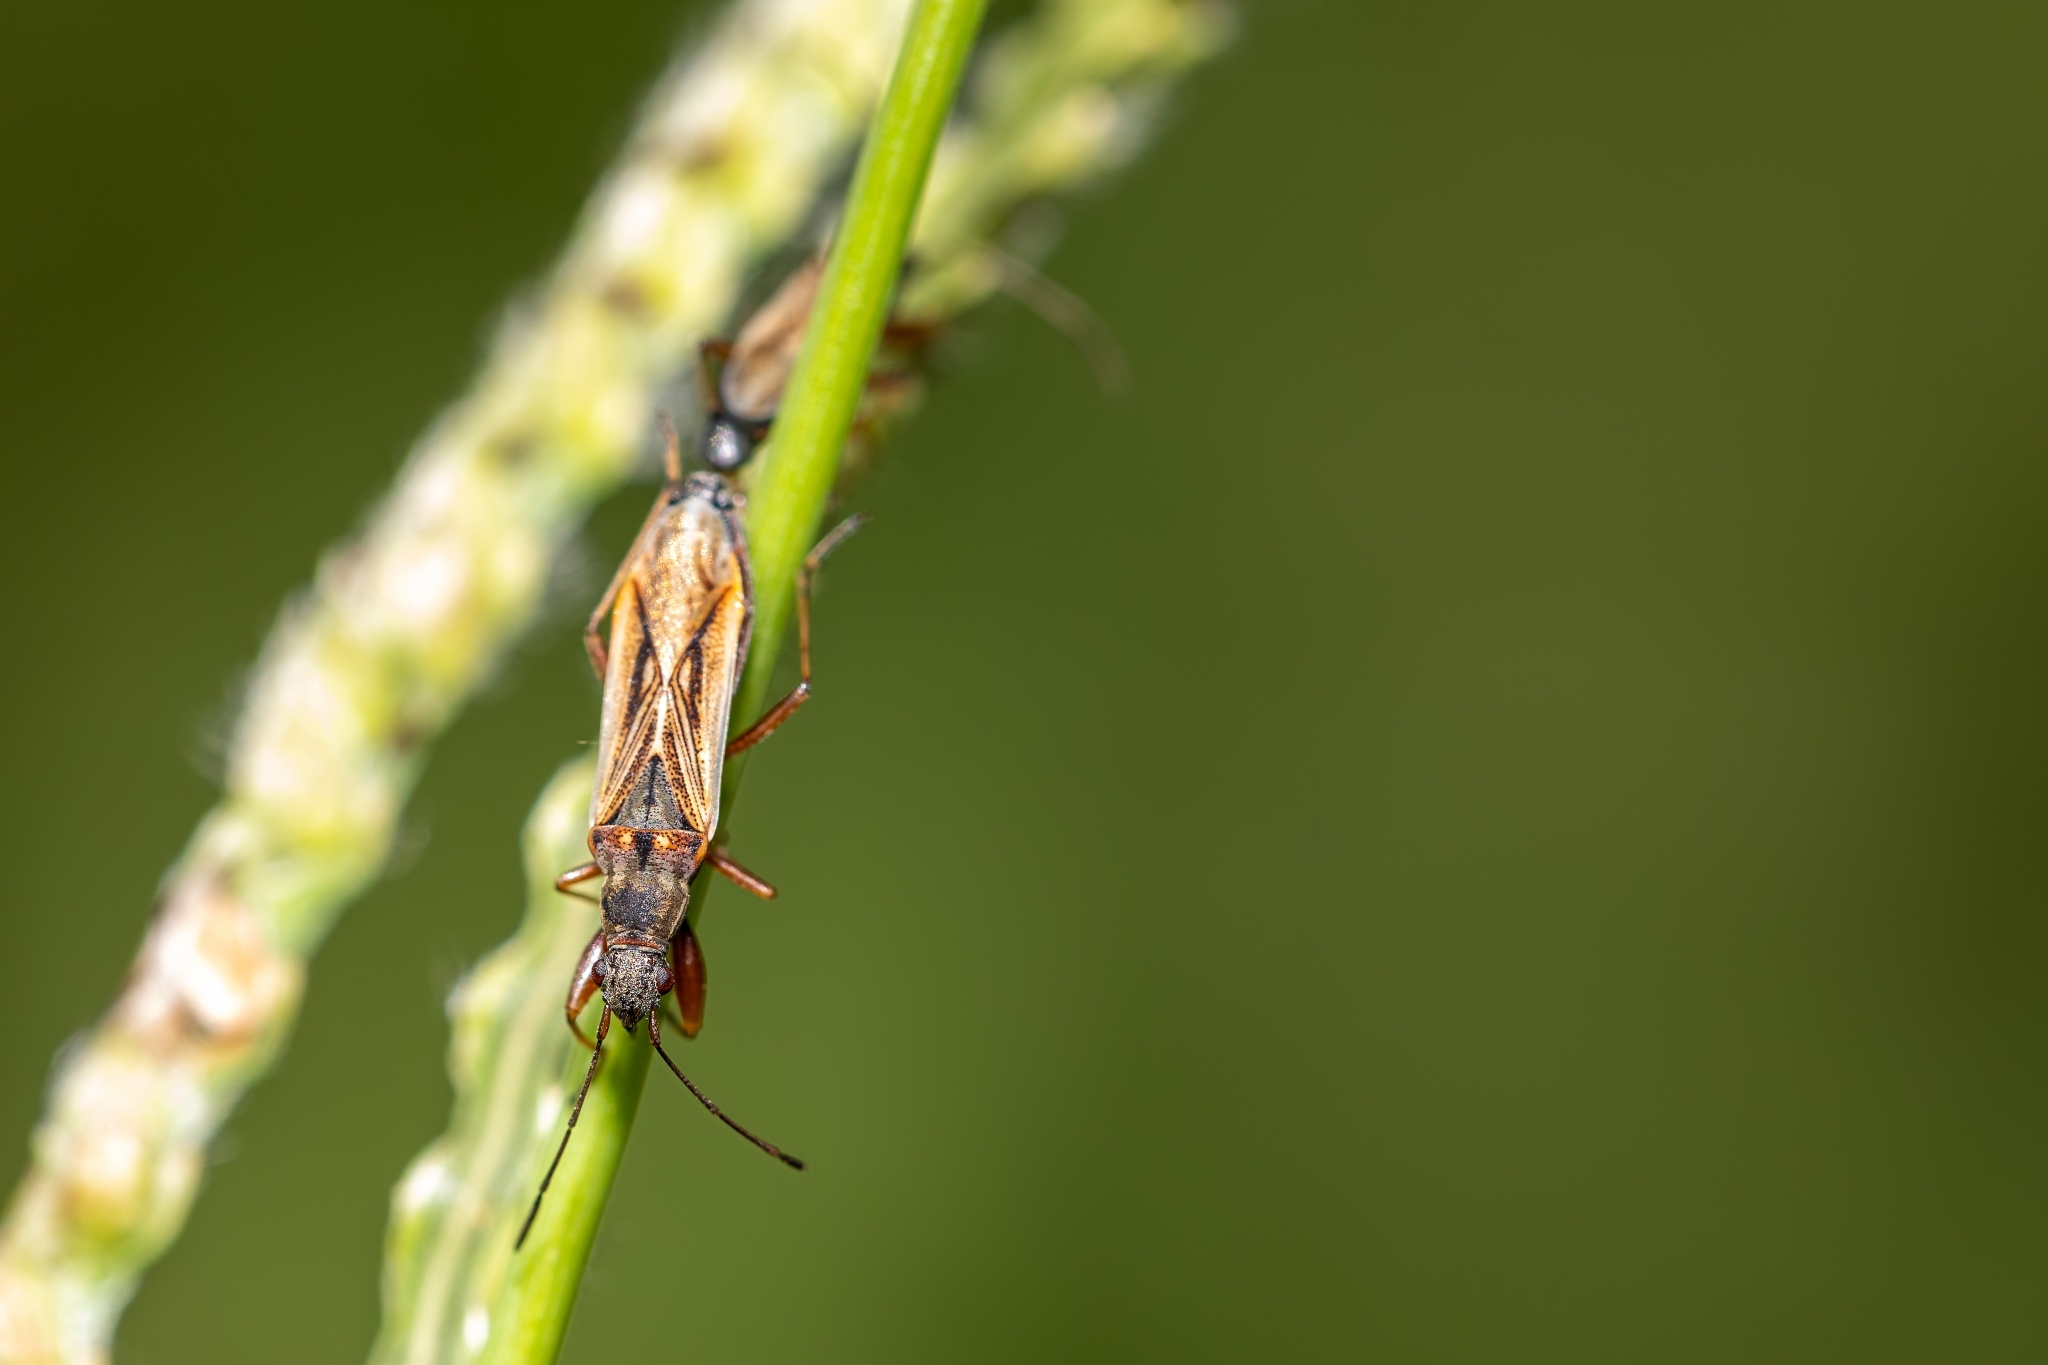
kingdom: Animalia
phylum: Arthropoda
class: Insecta
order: Hemiptera
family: Rhyparochromidae
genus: Paromius
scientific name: Paromius longulus
